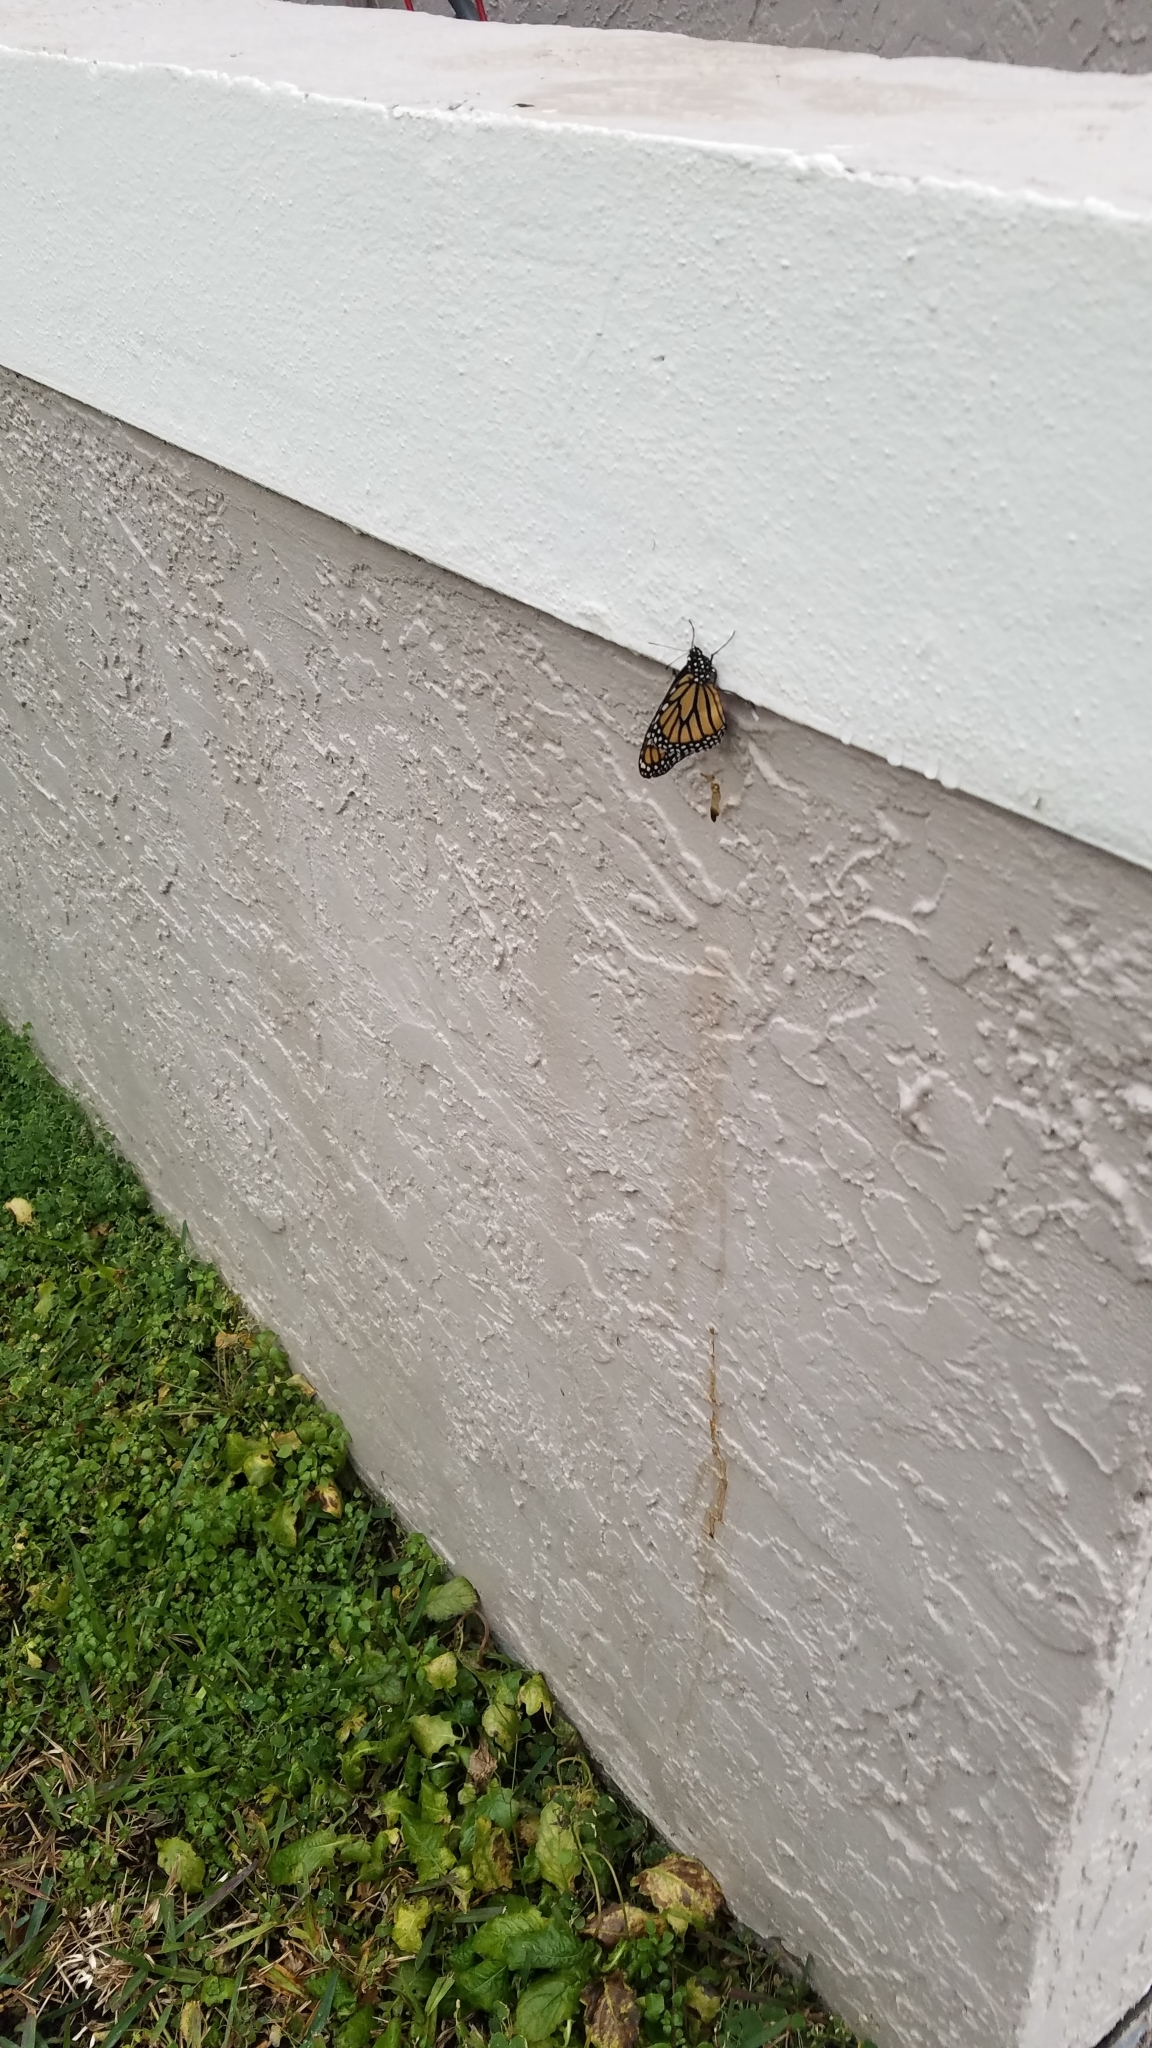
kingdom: Animalia
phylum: Arthropoda
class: Insecta
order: Lepidoptera
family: Nymphalidae
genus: Danaus
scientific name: Danaus plexippus
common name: Monarch
